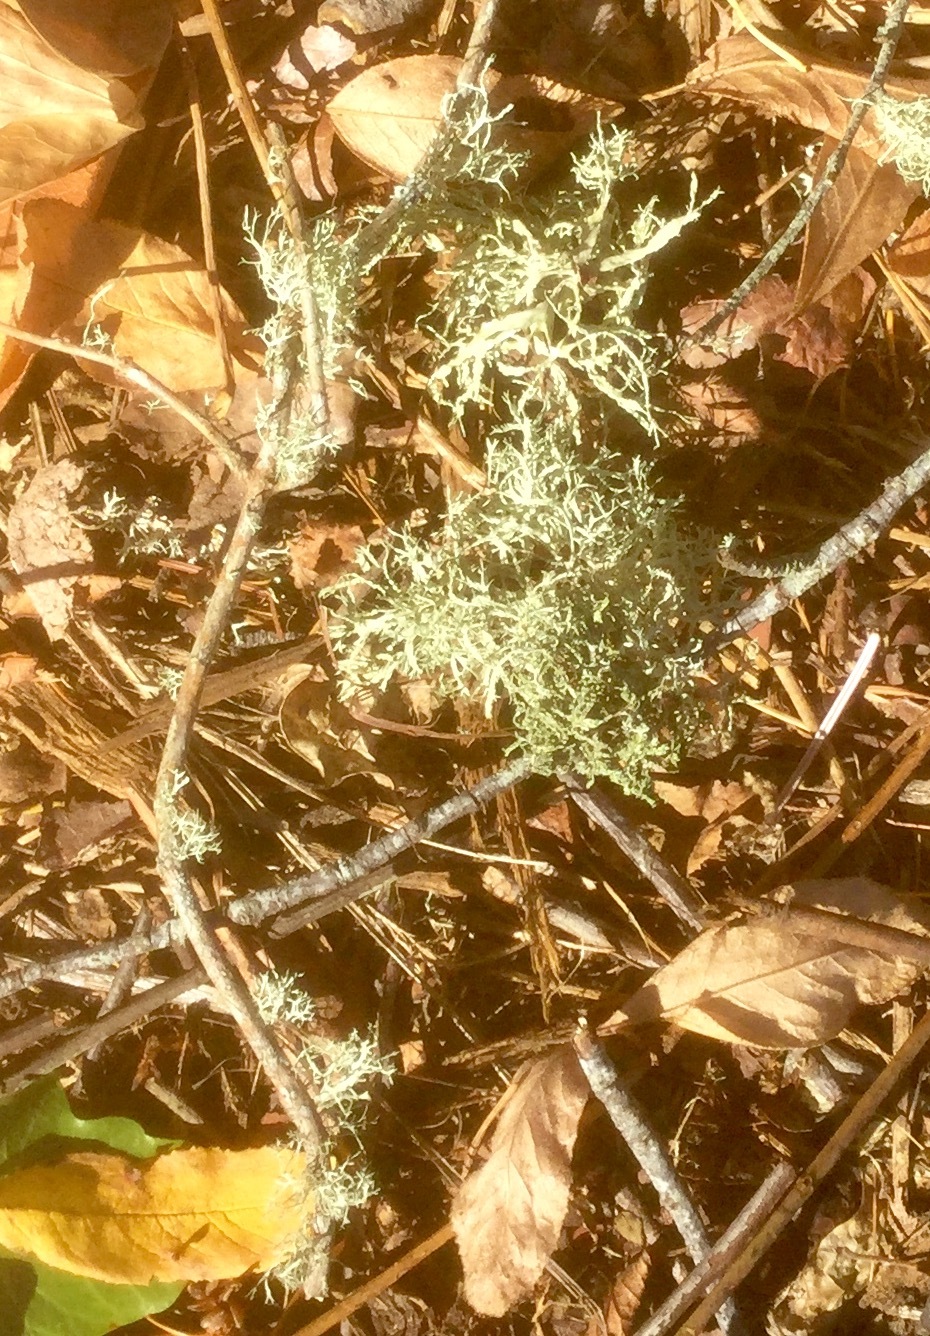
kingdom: Fungi
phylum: Ascomycota
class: Lecanoromycetes
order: Lecanorales
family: Parmeliaceae
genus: Evernia
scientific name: Evernia prunastri
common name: Oak moss
